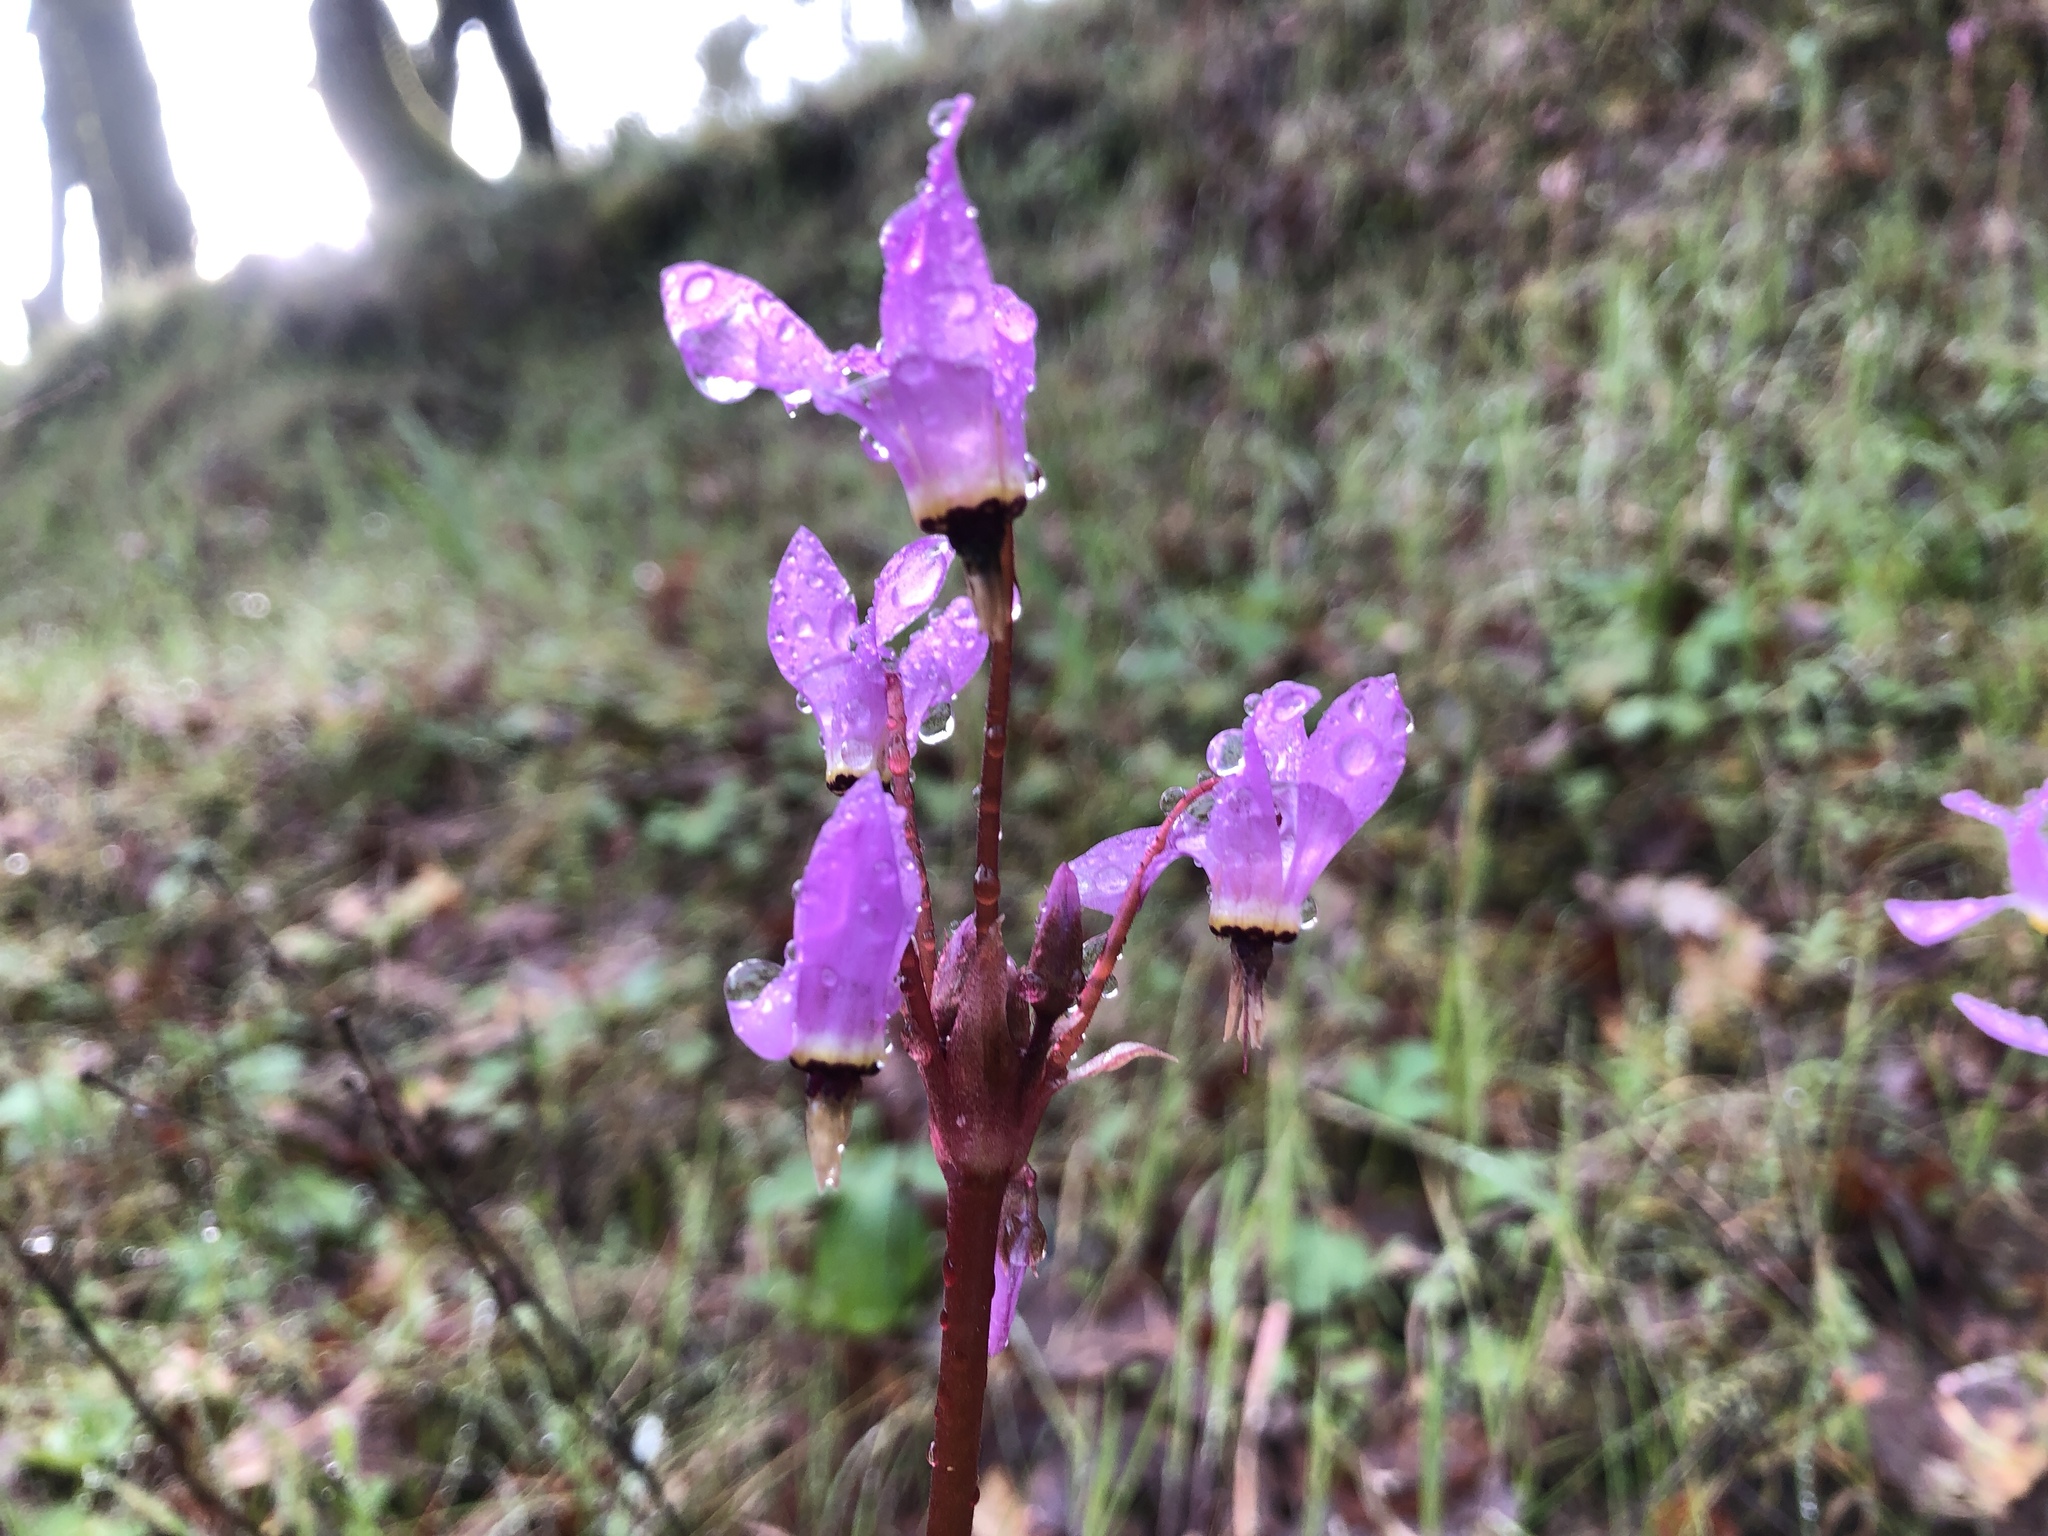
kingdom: Plantae
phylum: Tracheophyta
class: Magnoliopsida
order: Ericales
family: Primulaceae
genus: Dodecatheon
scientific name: Dodecatheon hendersonii
